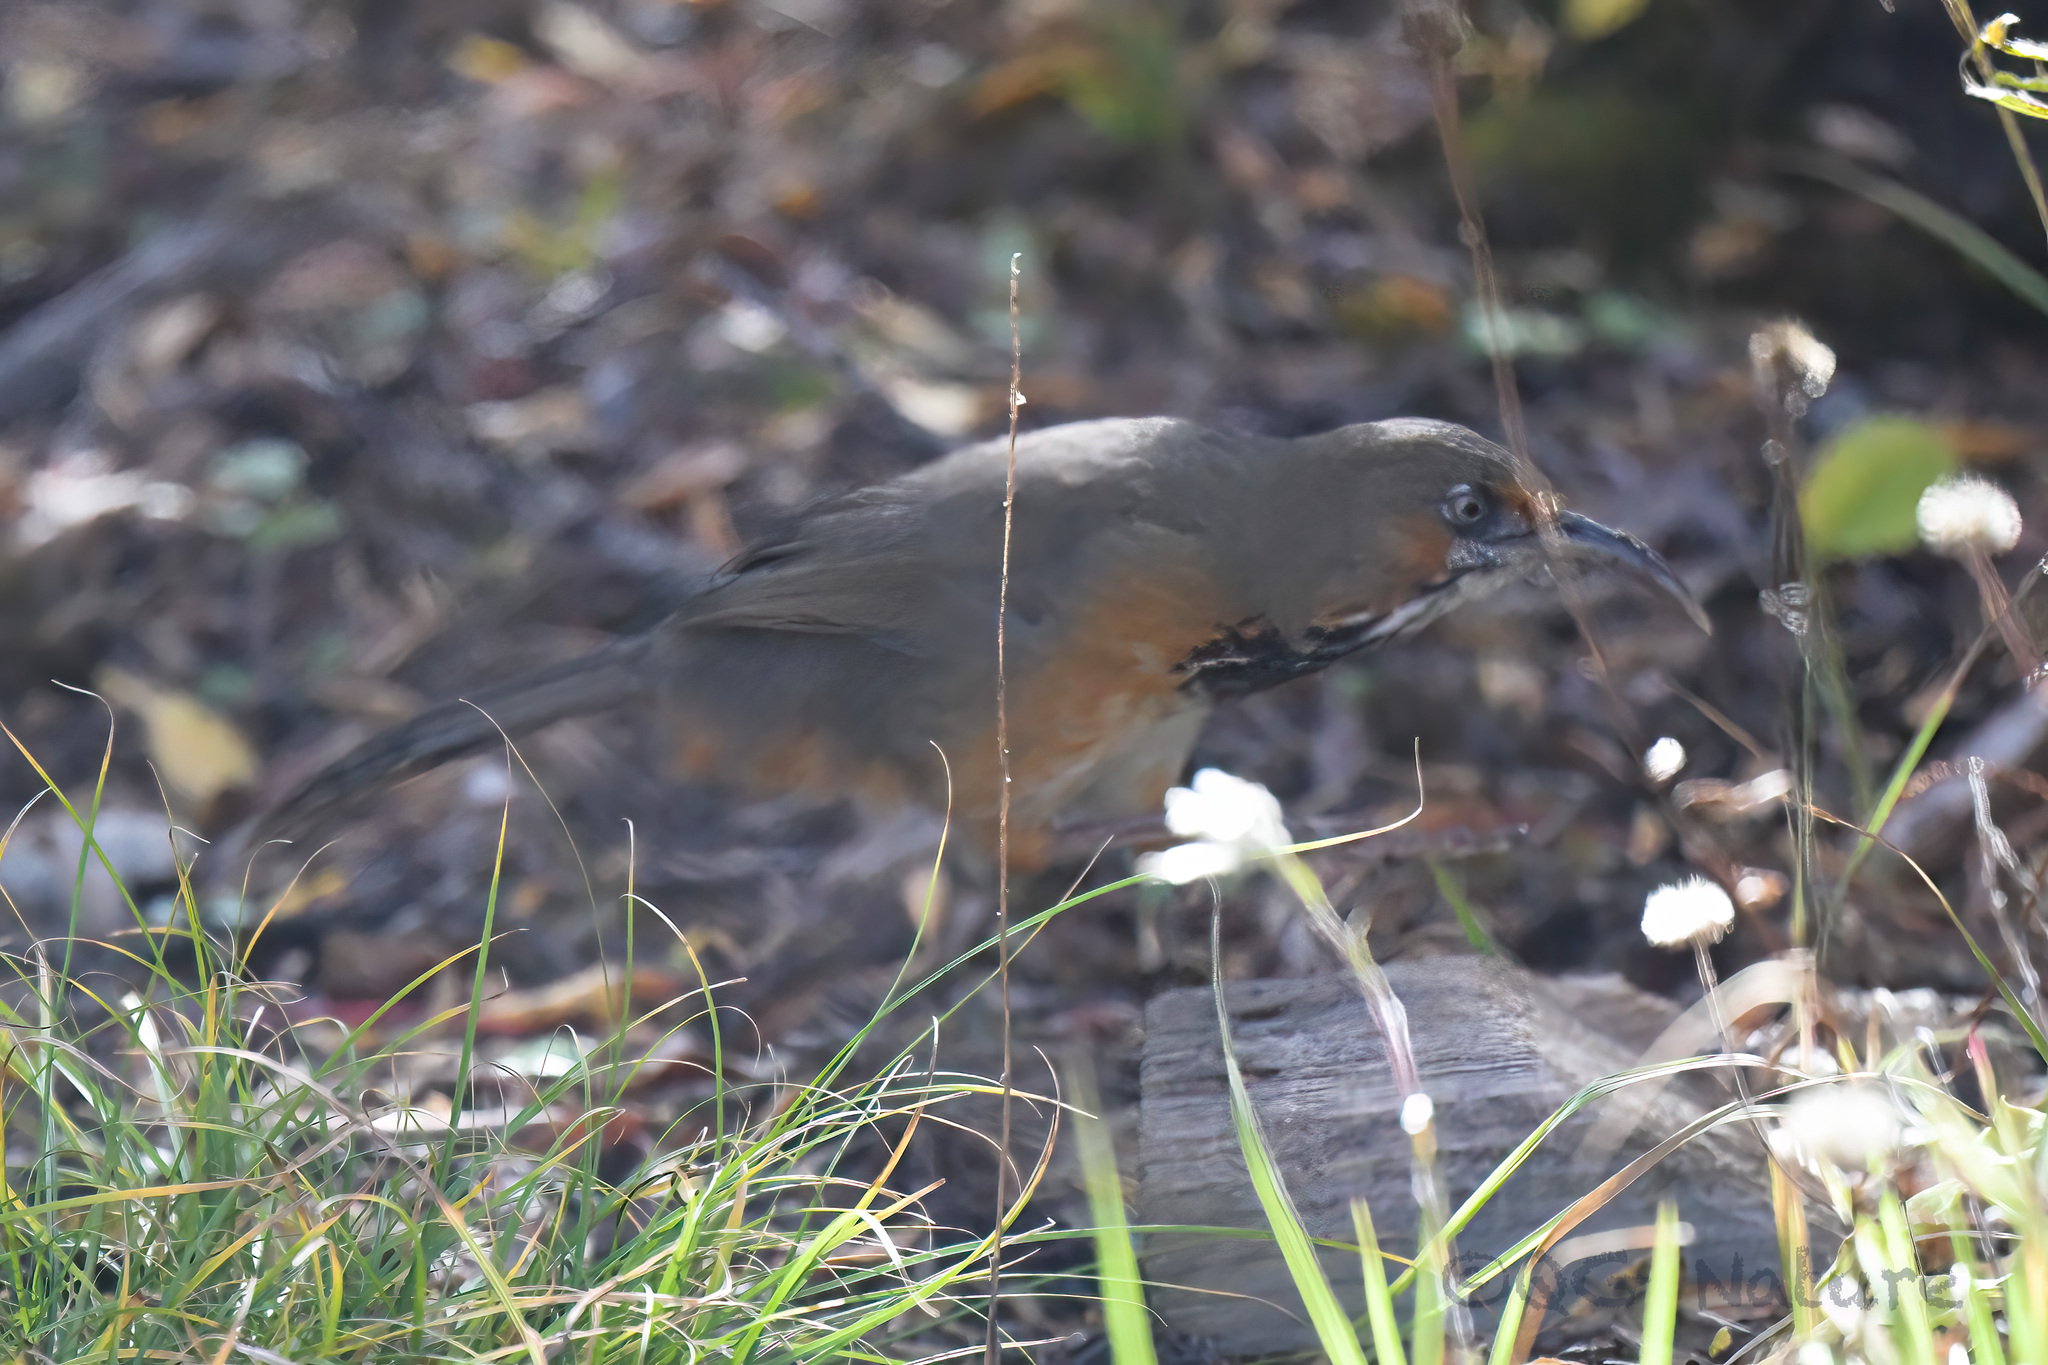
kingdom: Animalia
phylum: Chordata
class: Aves
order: Passeriformes
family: Timaliidae
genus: Pomatorhinus
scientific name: Pomatorhinus gravivox
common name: Black-streaked scimitar babbler
